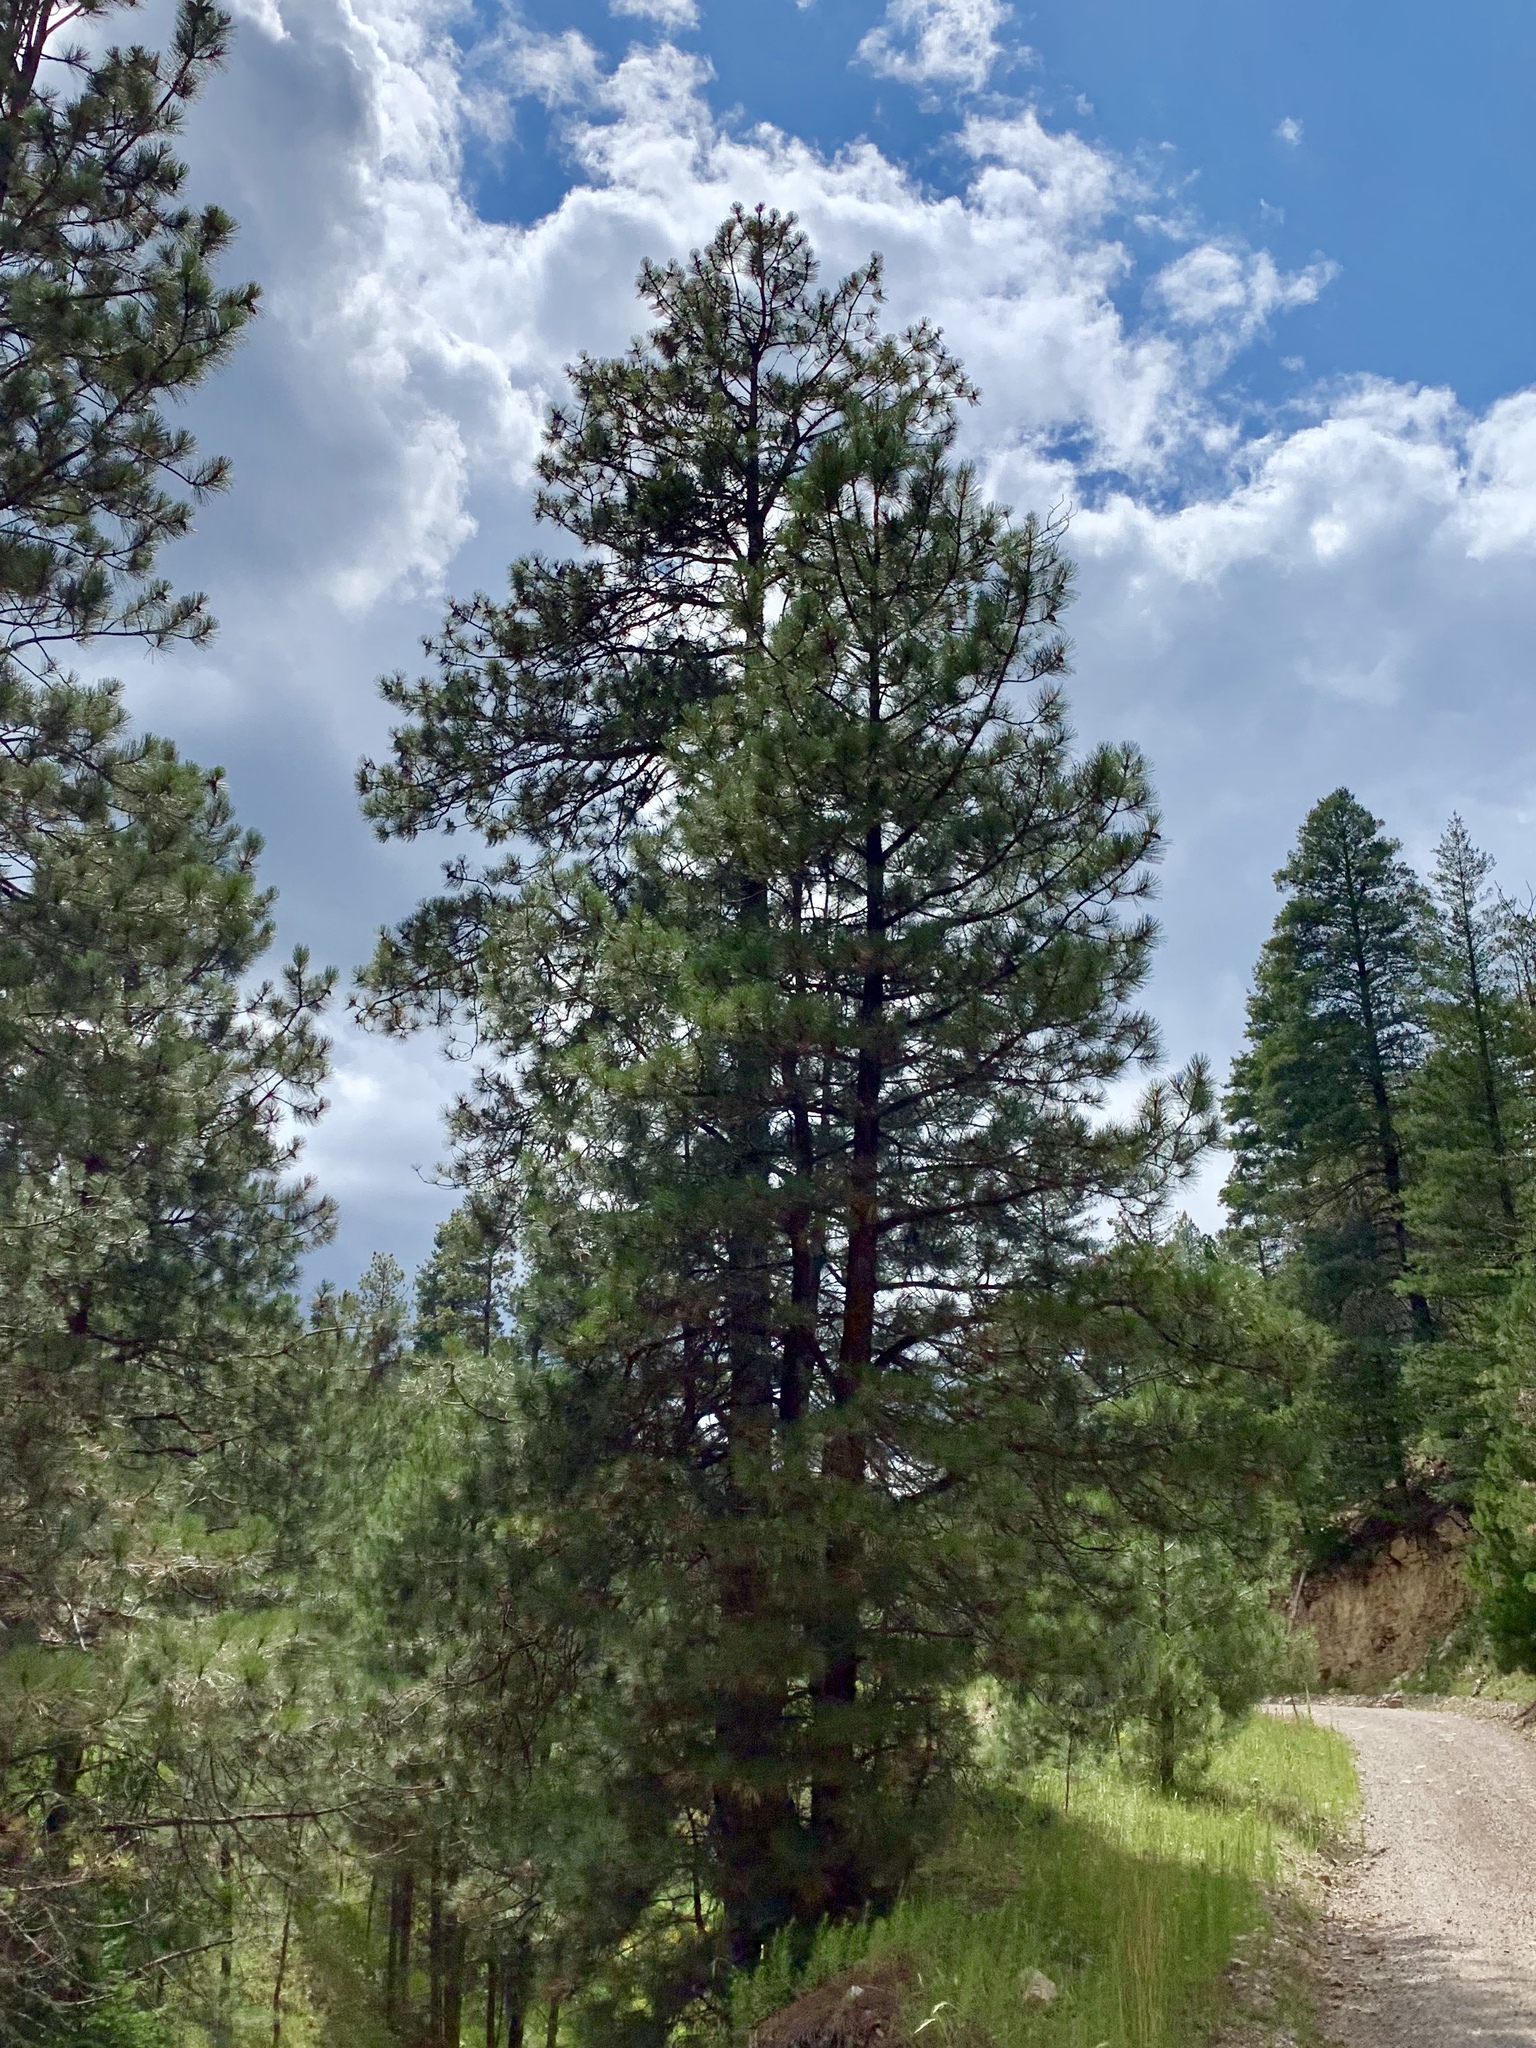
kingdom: Plantae
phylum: Tracheophyta
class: Pinopsida
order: Pinales
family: Pinaceae
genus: Pinus
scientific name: Pinus ponderosa
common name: Western yellow-pine
